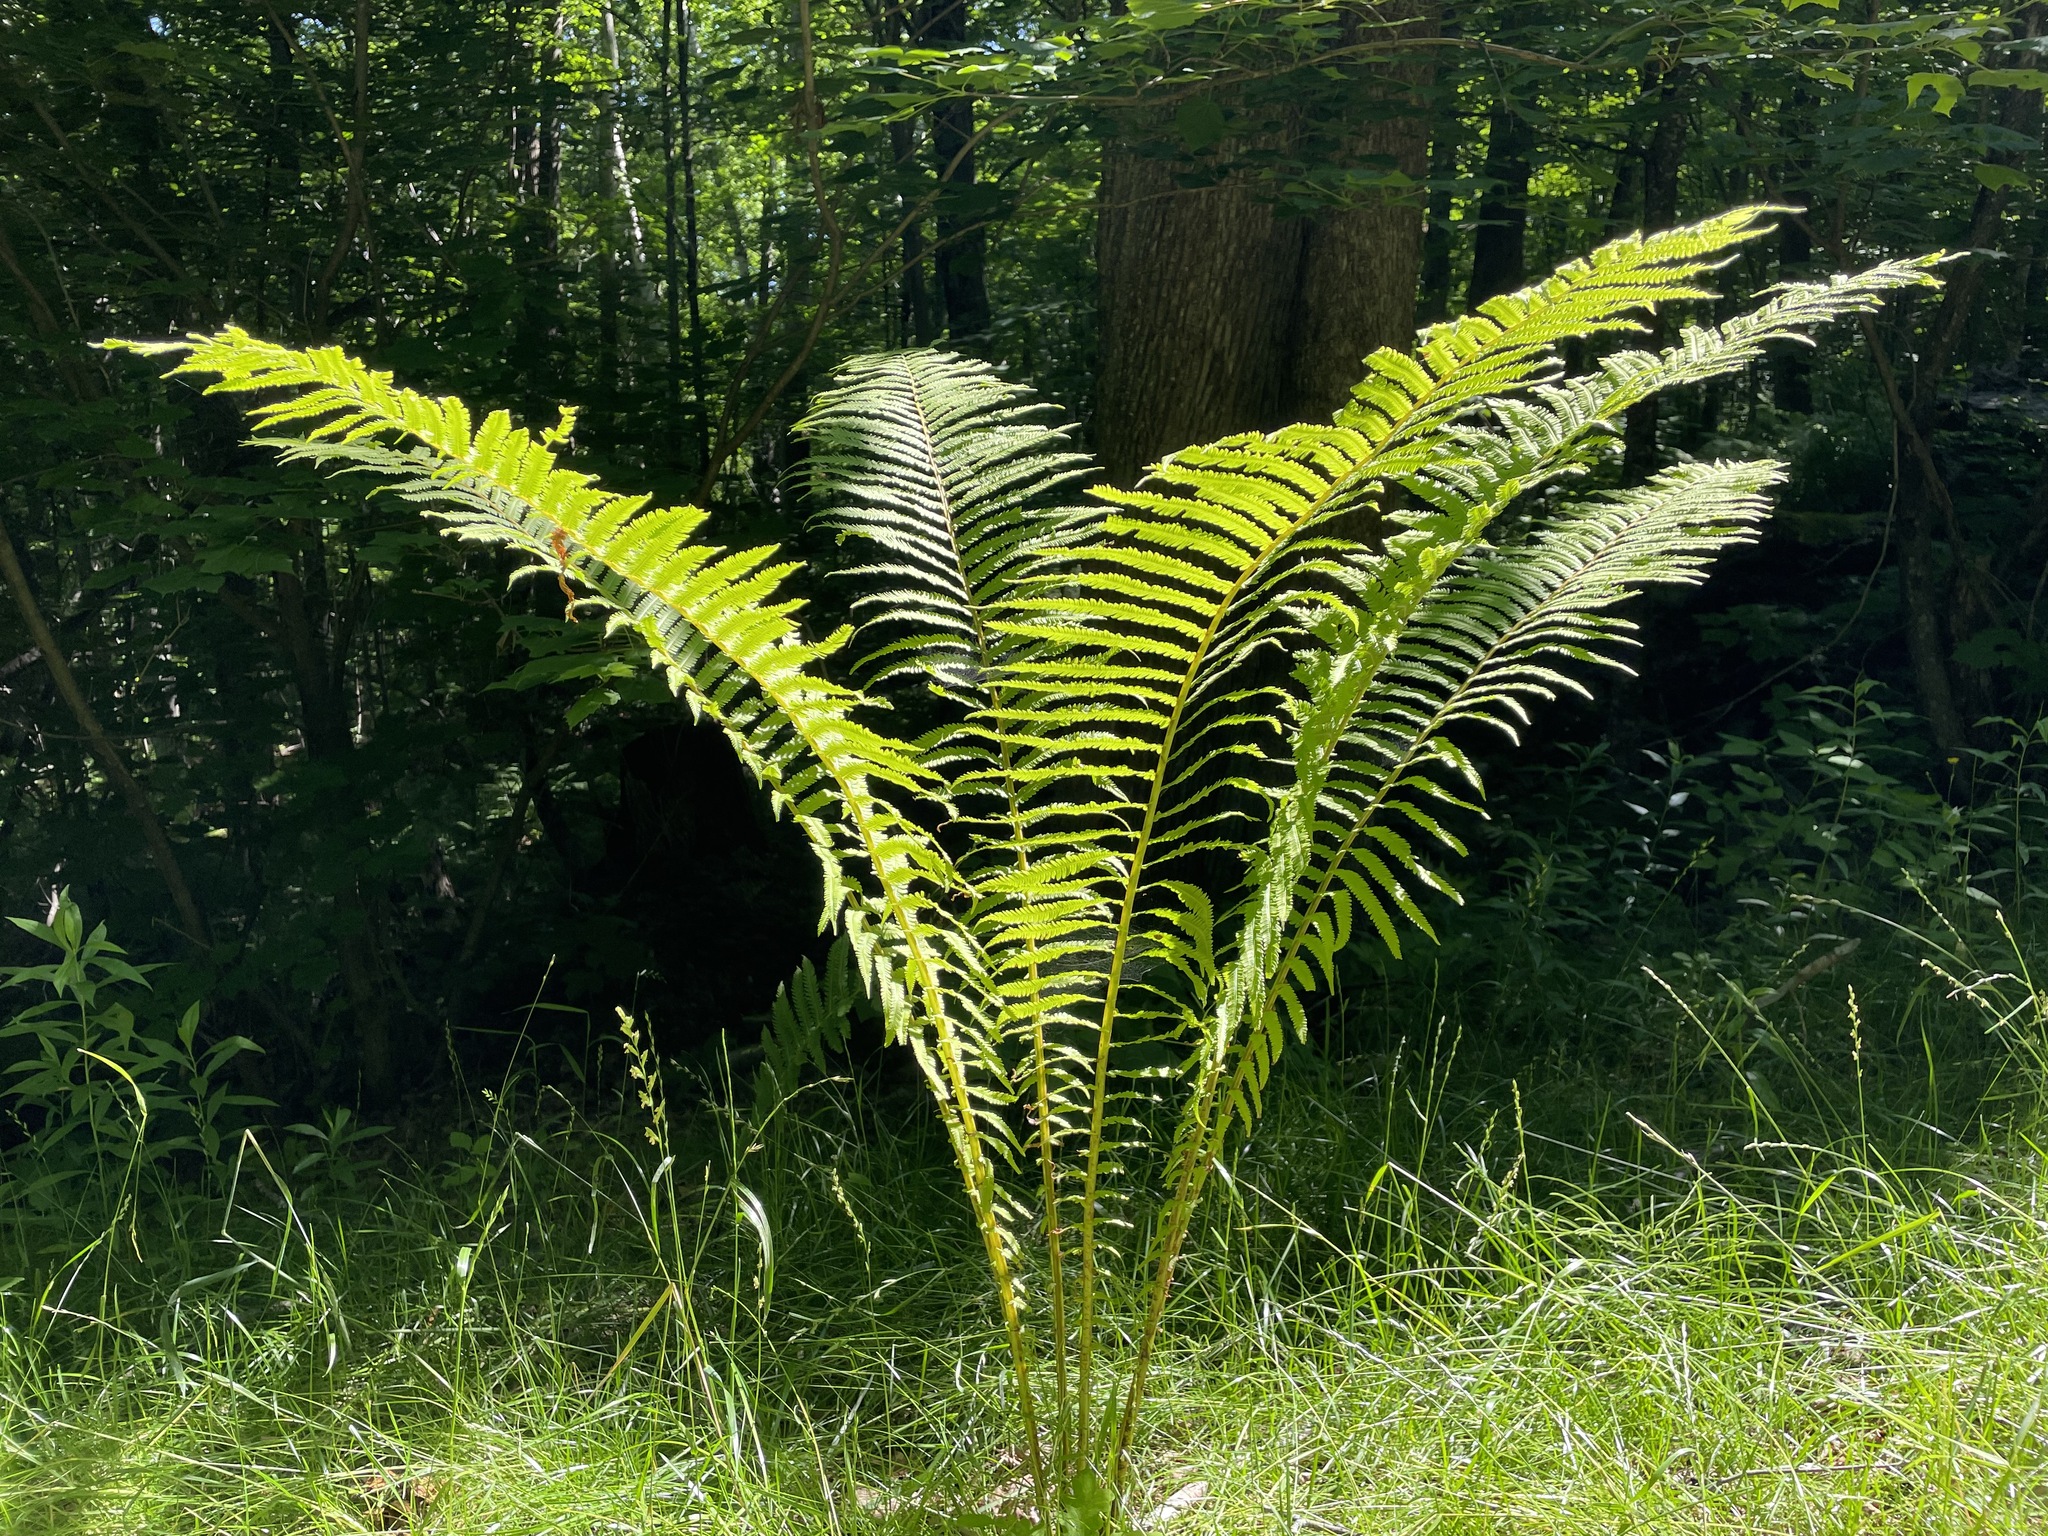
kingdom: Plantae
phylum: Tracheophyta
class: Polypodiopsida
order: Polypodiales
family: Onocleaceae
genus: Matteuccia
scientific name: Matteuccia struthiopteris
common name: Ostrich fern
